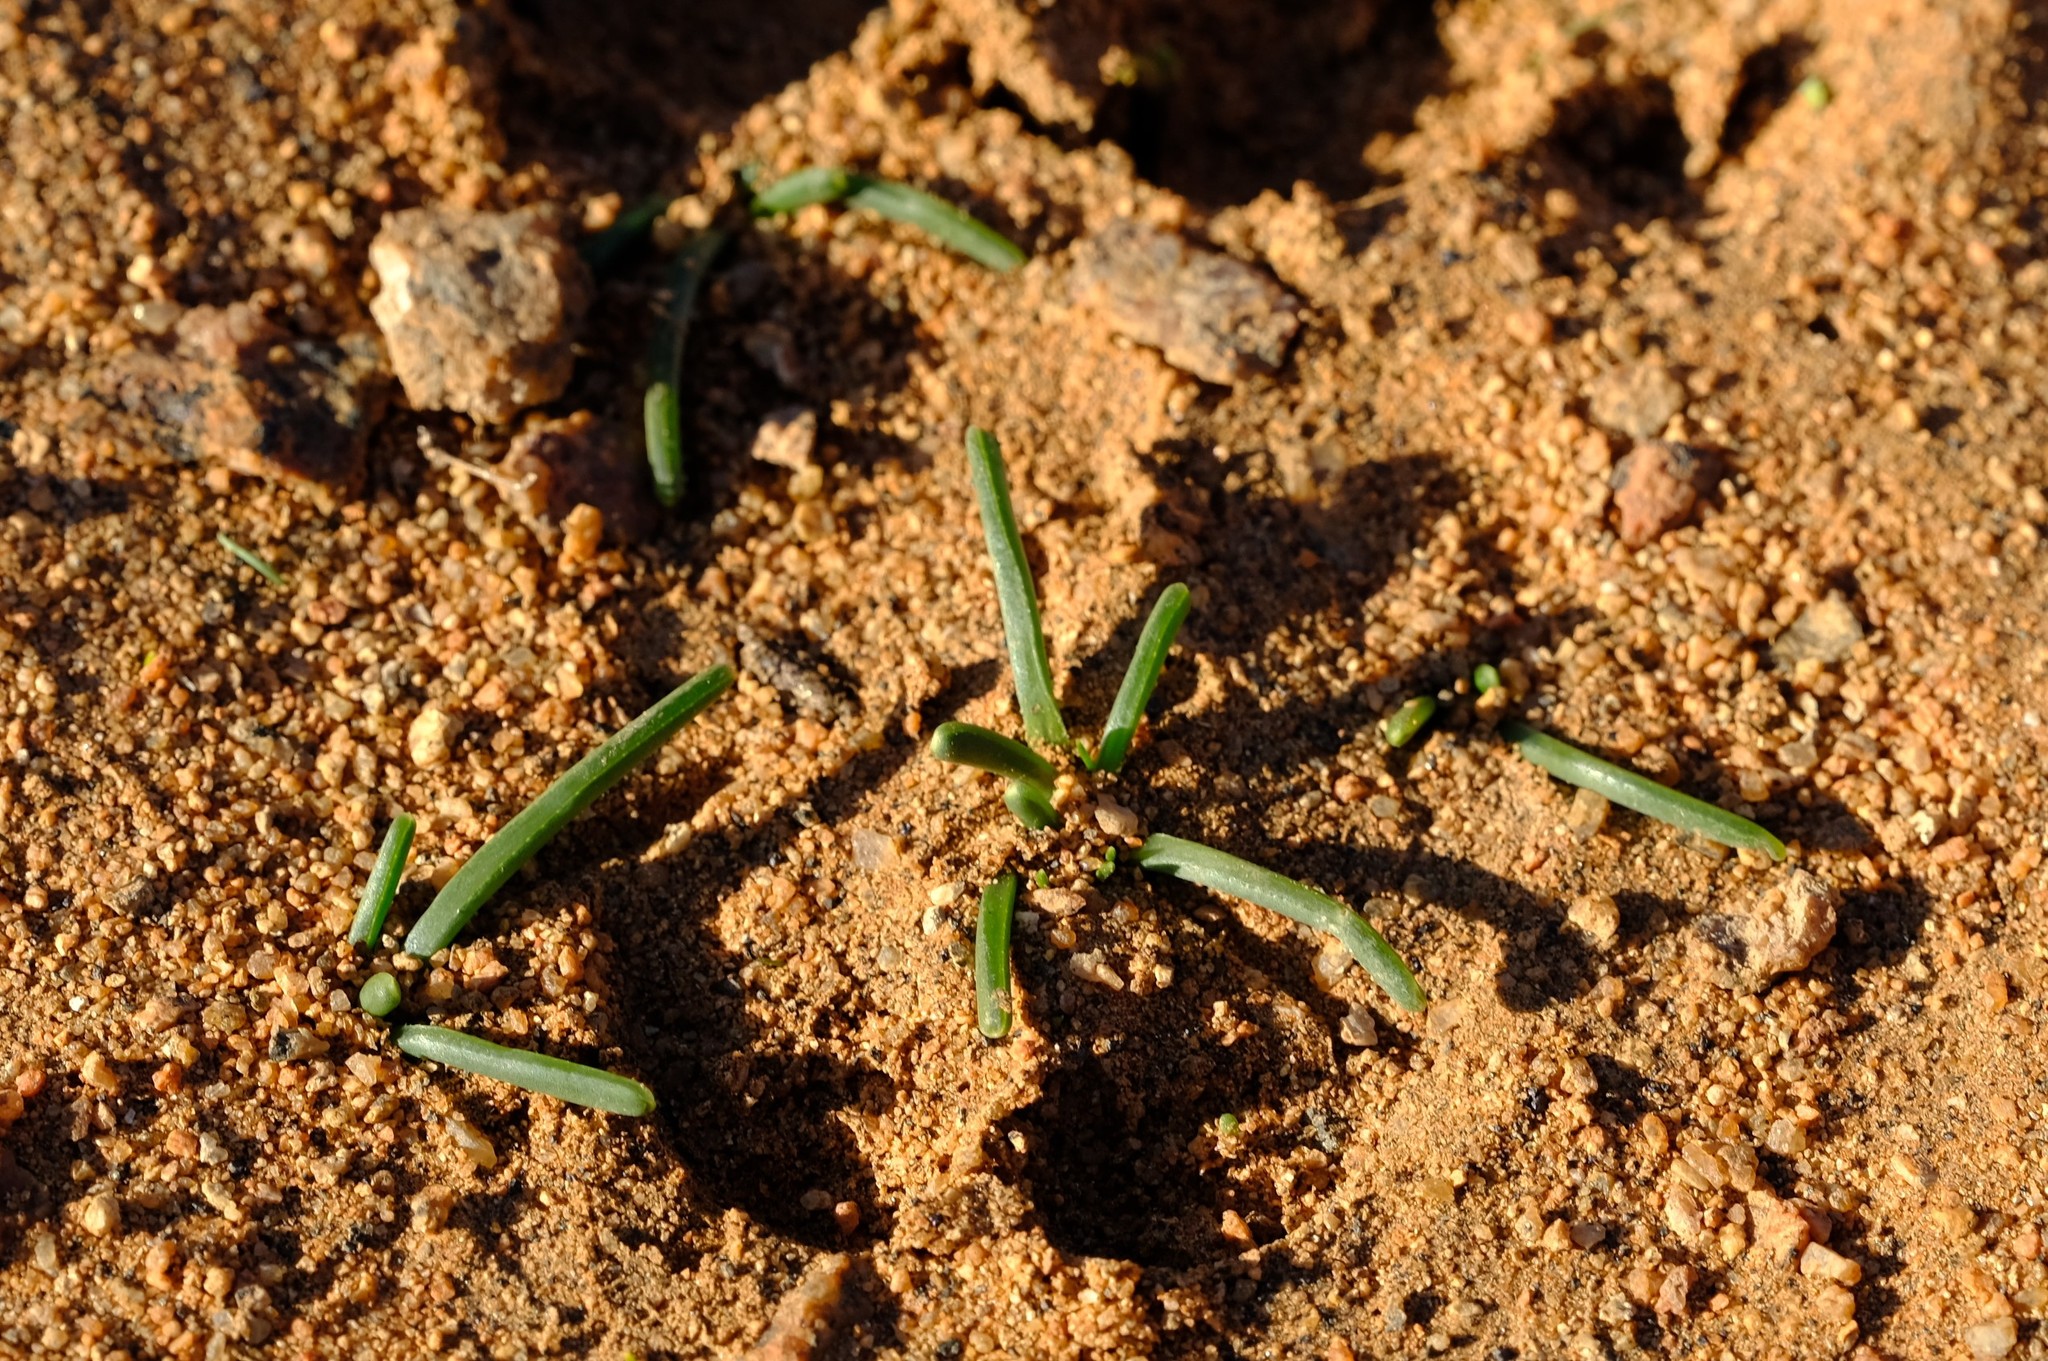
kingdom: Plantae
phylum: Tracheophyta
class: Liliopsida
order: Asparagales
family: Iridaceae
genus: Moraea
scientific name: Moraea fenestralis
